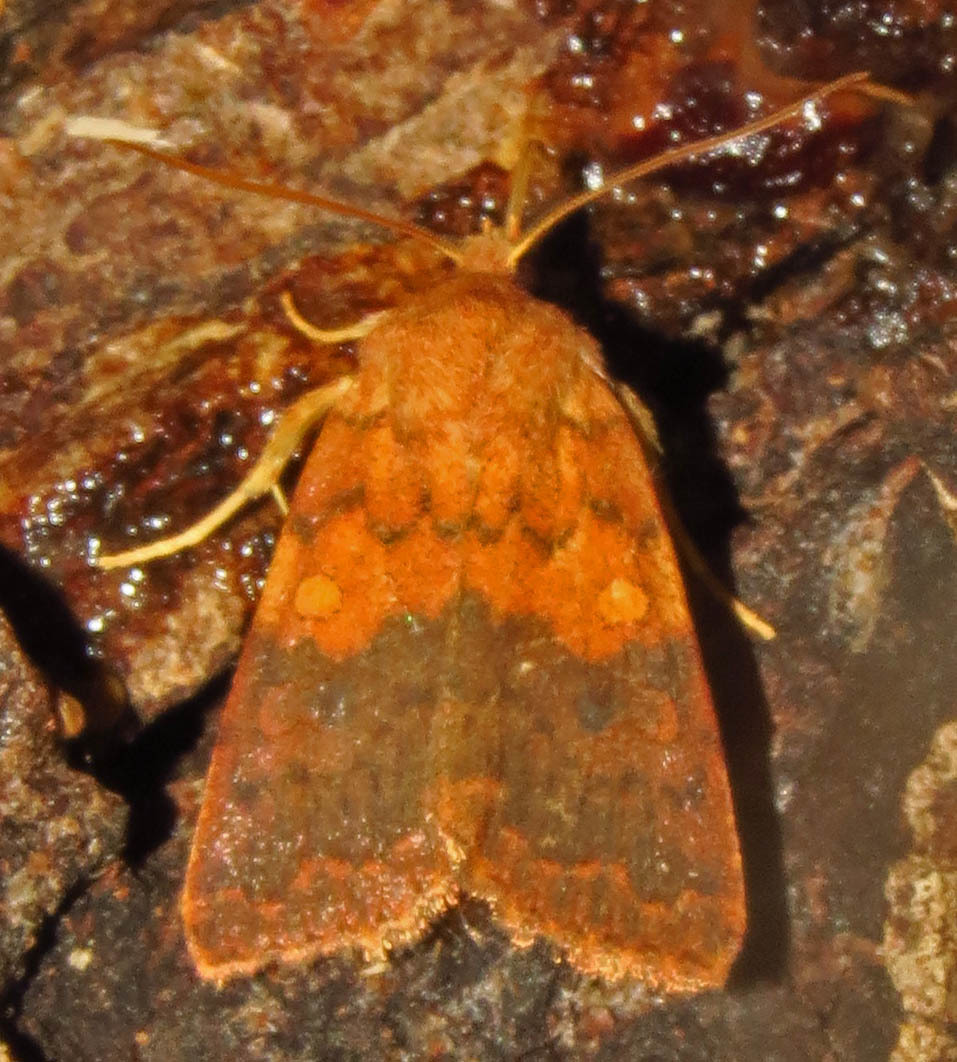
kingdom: Animalia
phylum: Arthropoda
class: Insecta
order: Lepidoptera
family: Noctuidae
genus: Agrochola
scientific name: Agrochola bicolorago
